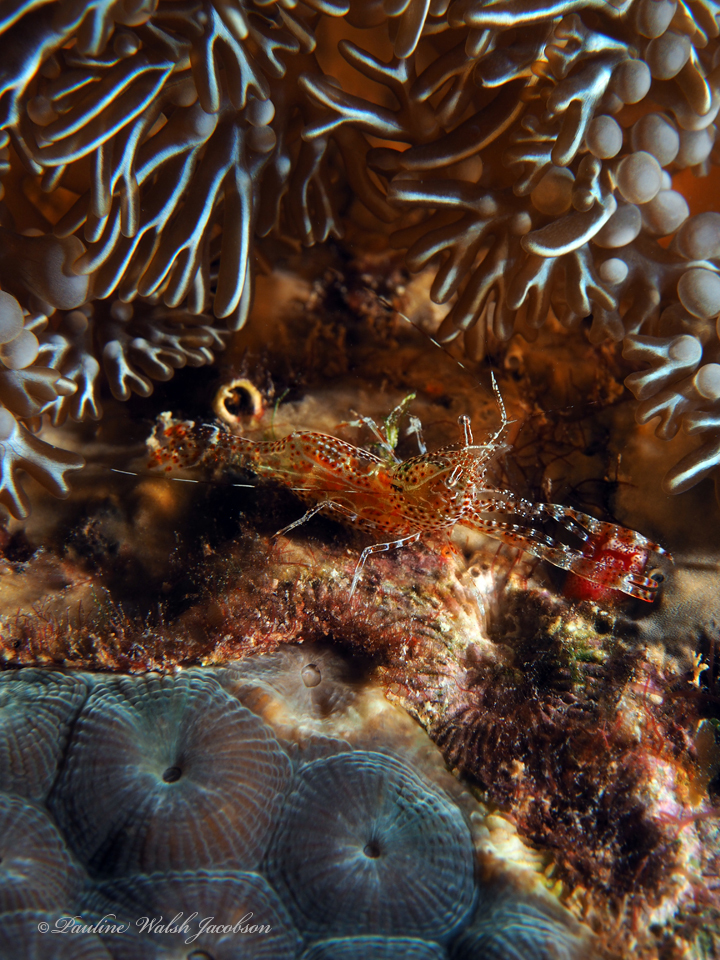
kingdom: Animalia
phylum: Arthropoda
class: Malacostraca
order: Decapoda
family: Palaemonidae
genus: Periclimenes
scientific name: Periclimenes rathbunae
